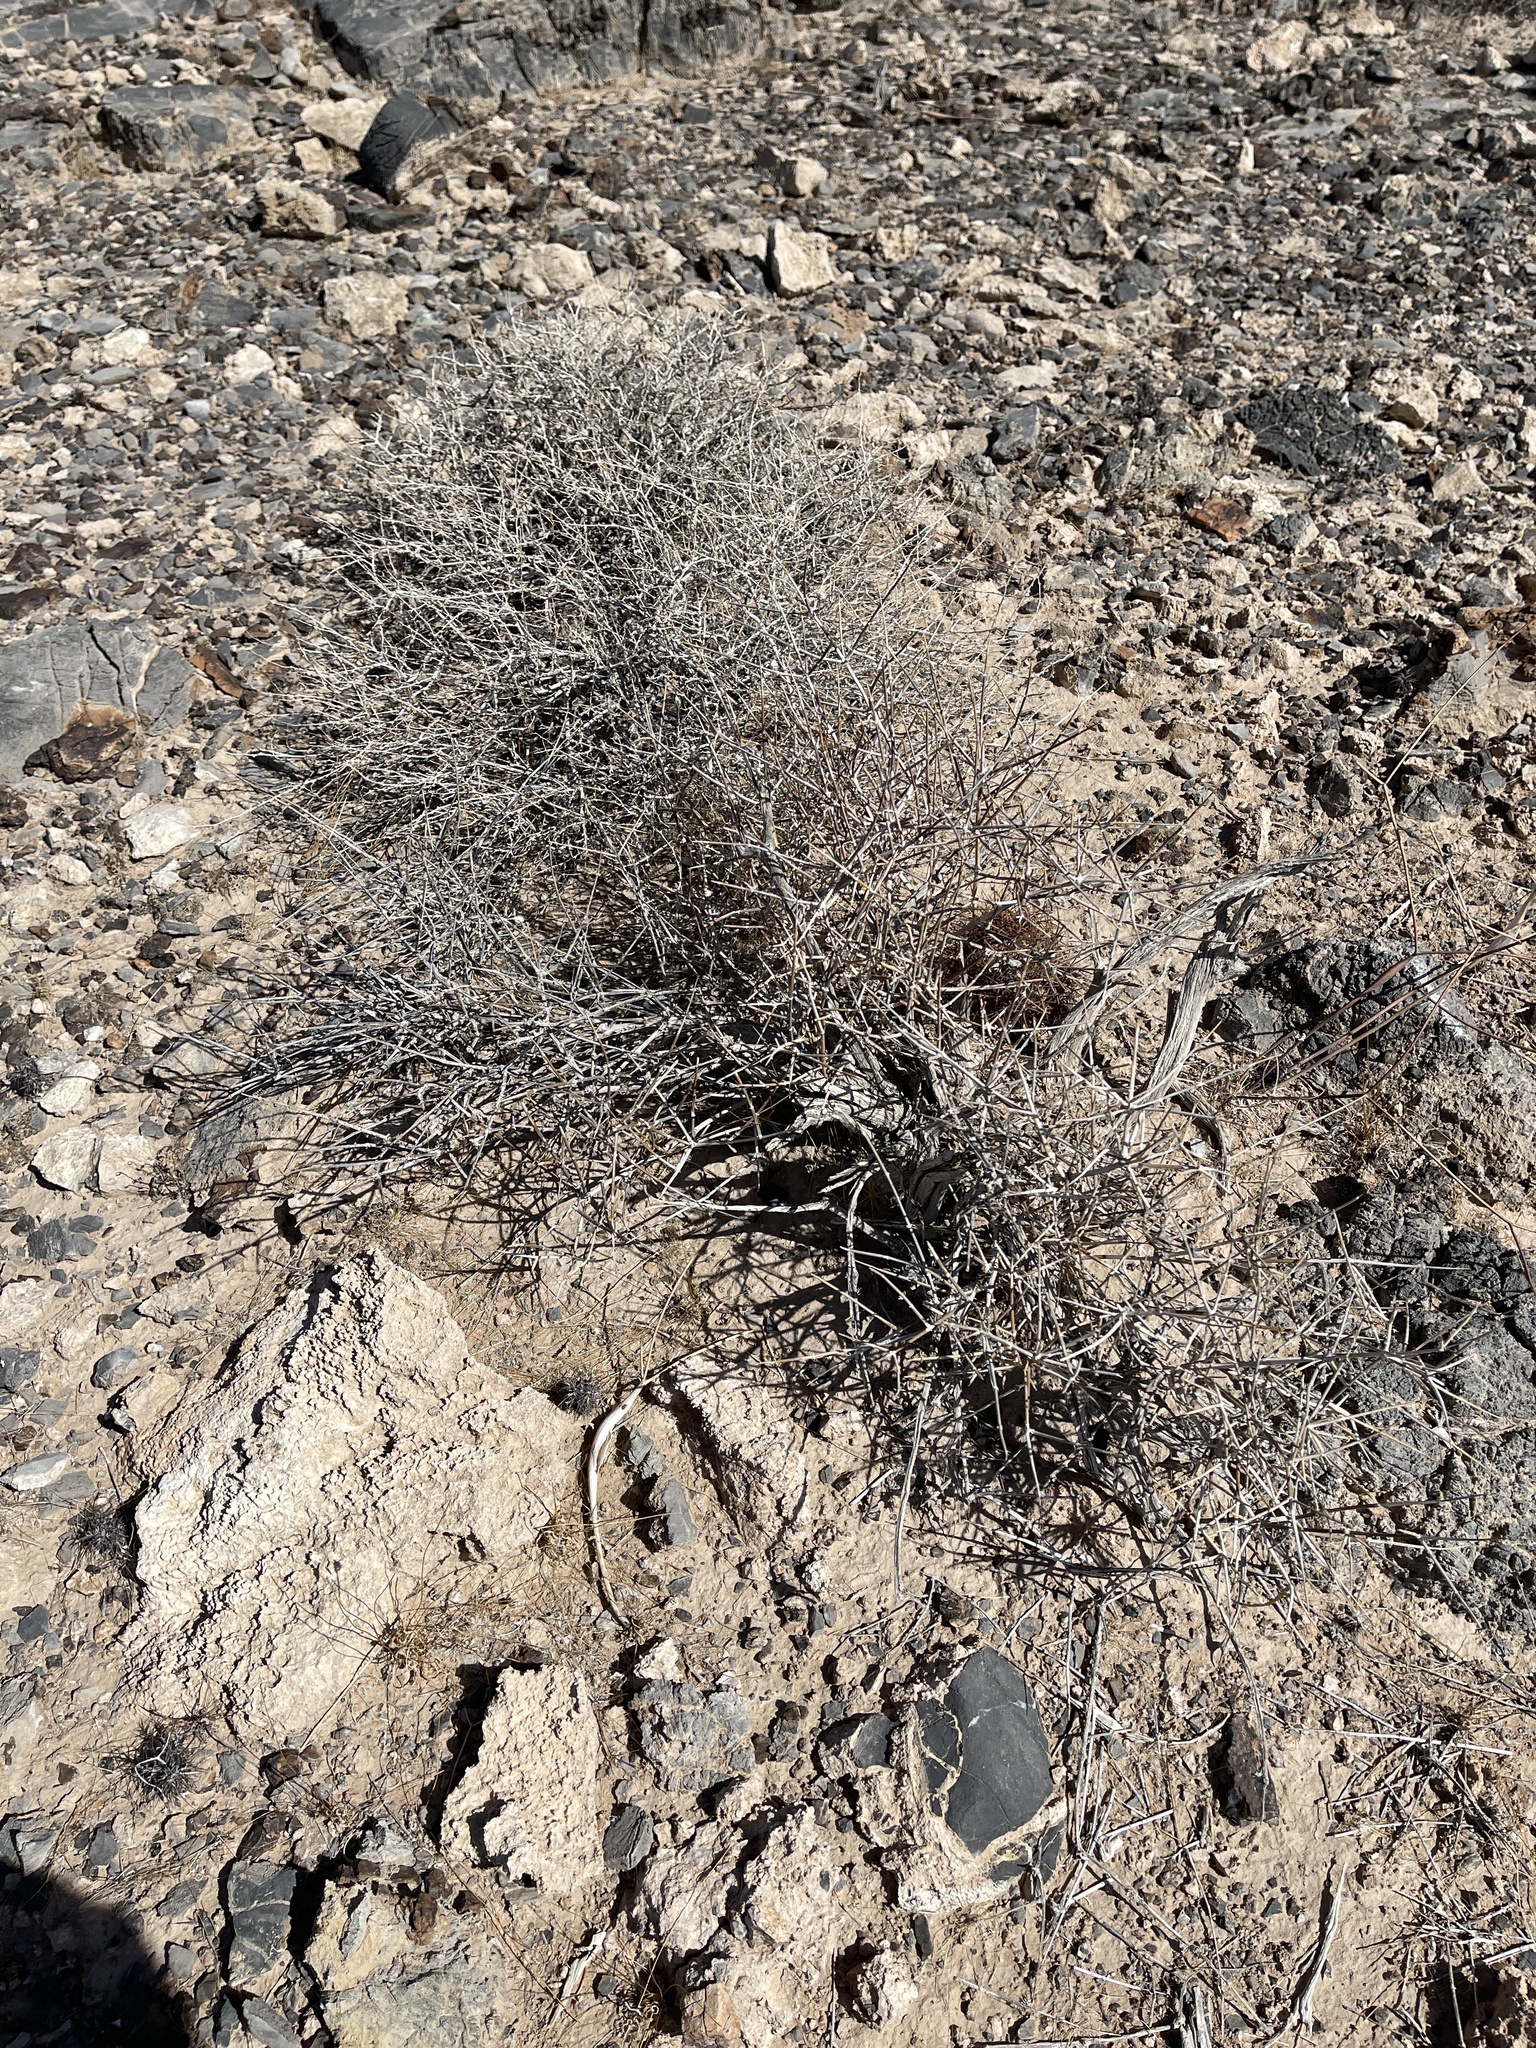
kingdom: Plantae
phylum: Tracheophyta
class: Gnetopsida
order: Ephedrales
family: Ephedraceae
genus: Ephedra
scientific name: Ephedra nevadensis
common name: Gray ephedra
